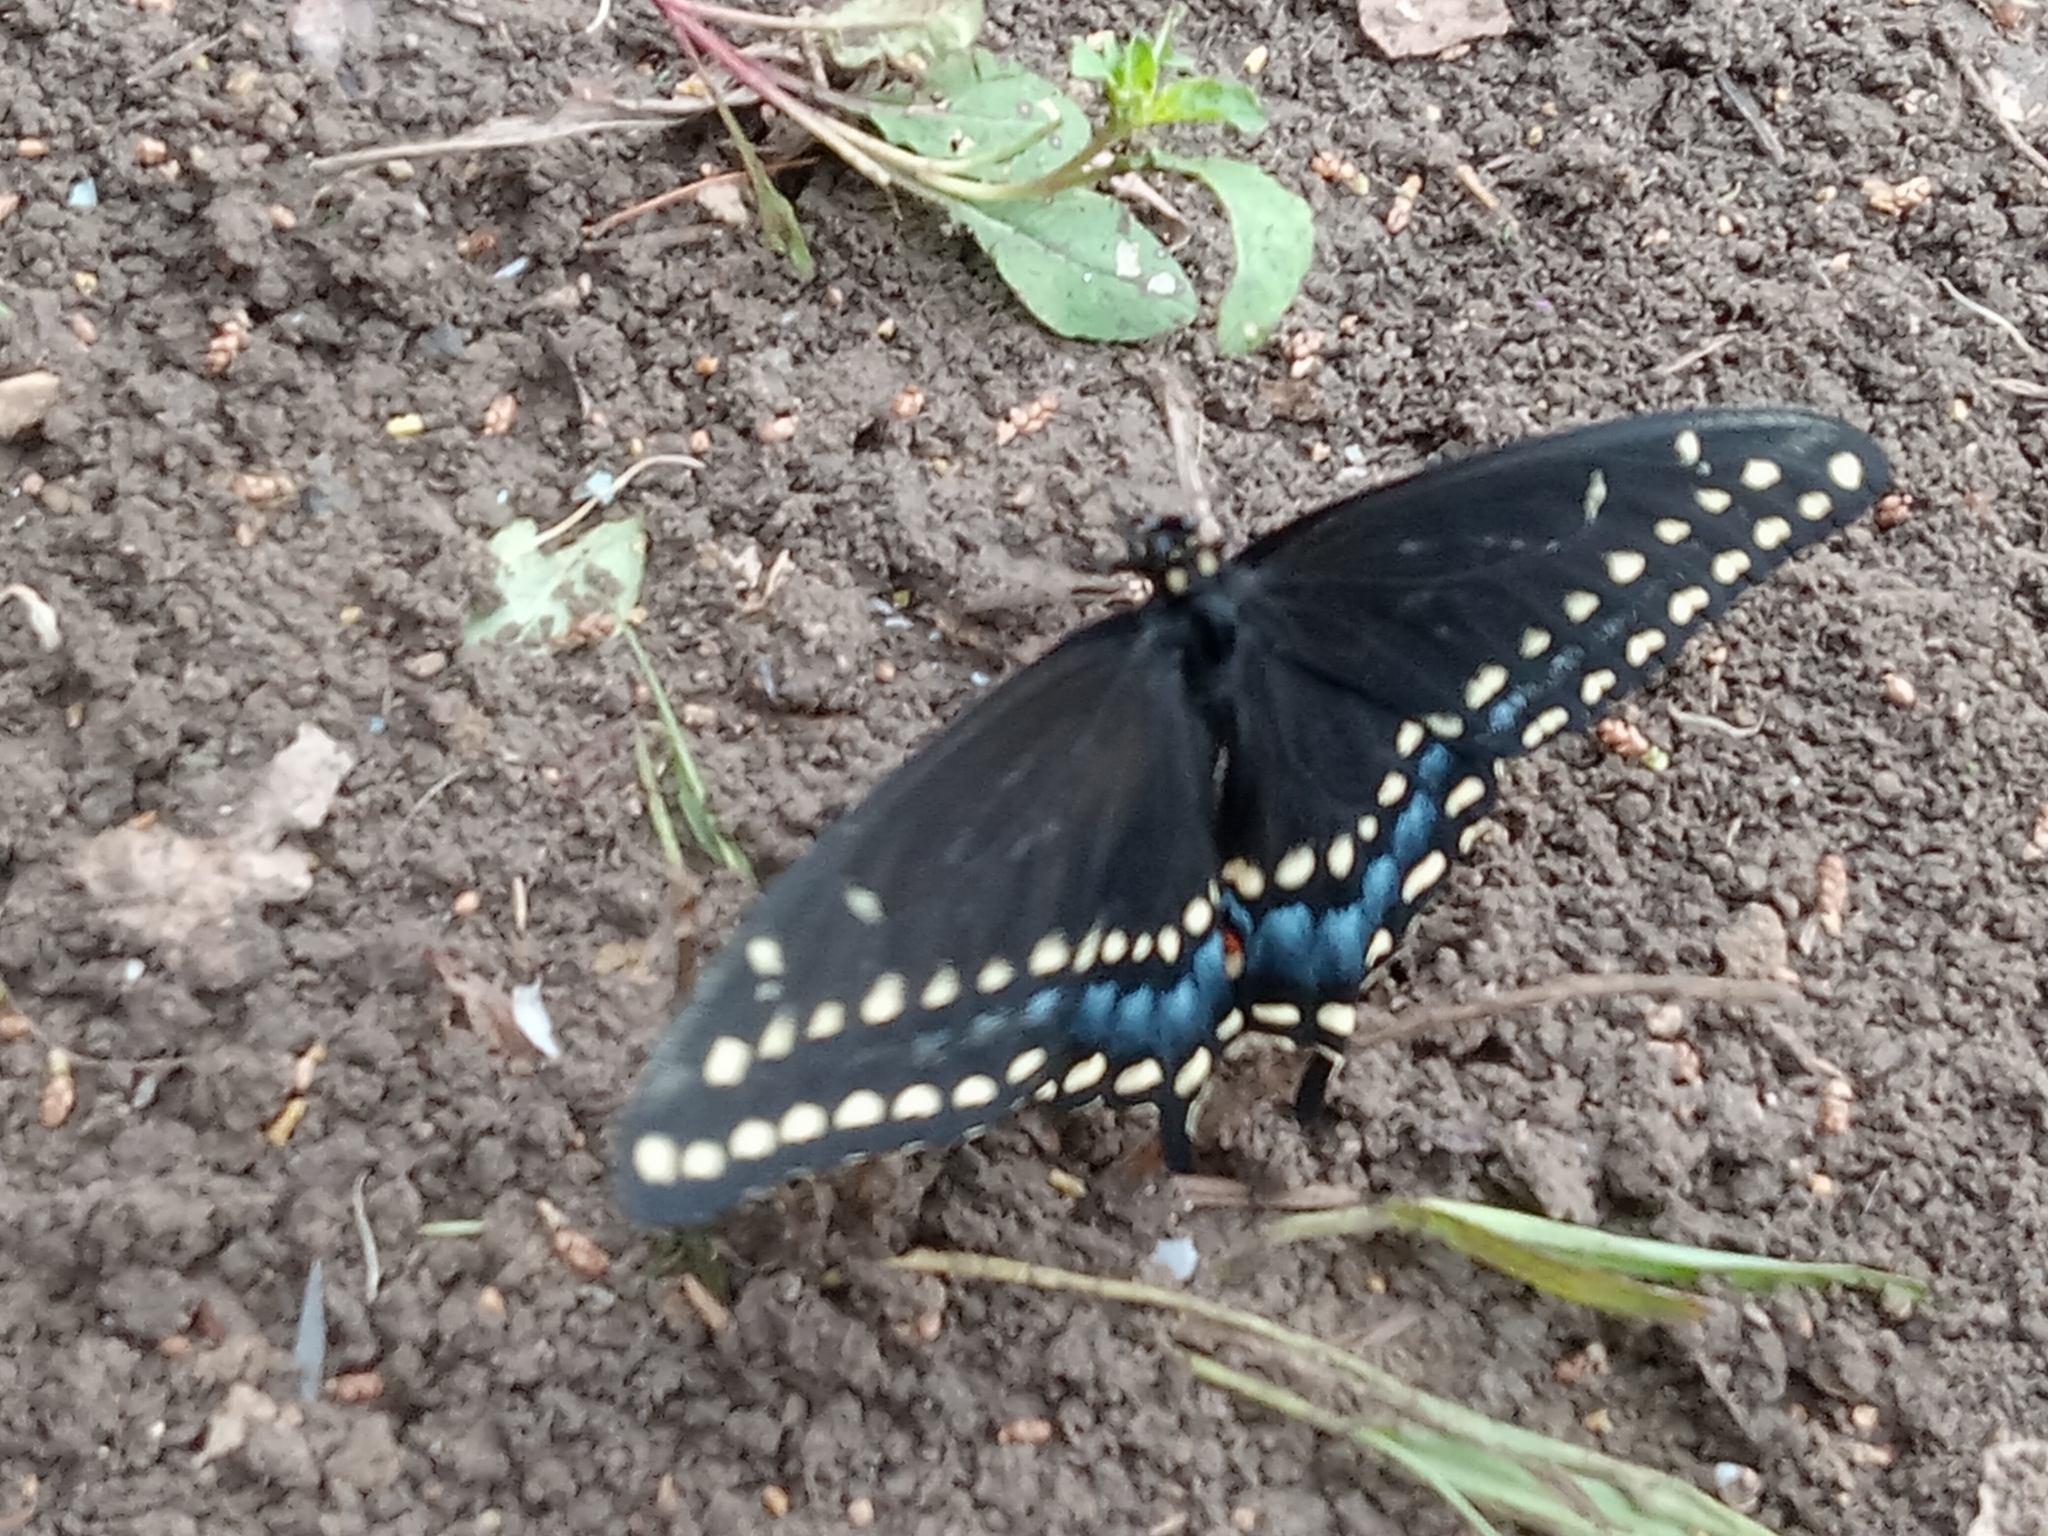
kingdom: Animalia
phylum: Arthropoda
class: Insecta
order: Lepidoptera
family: Papilionidae
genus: Papilio
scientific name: Papilio polyxenes
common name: Black swallowtail
